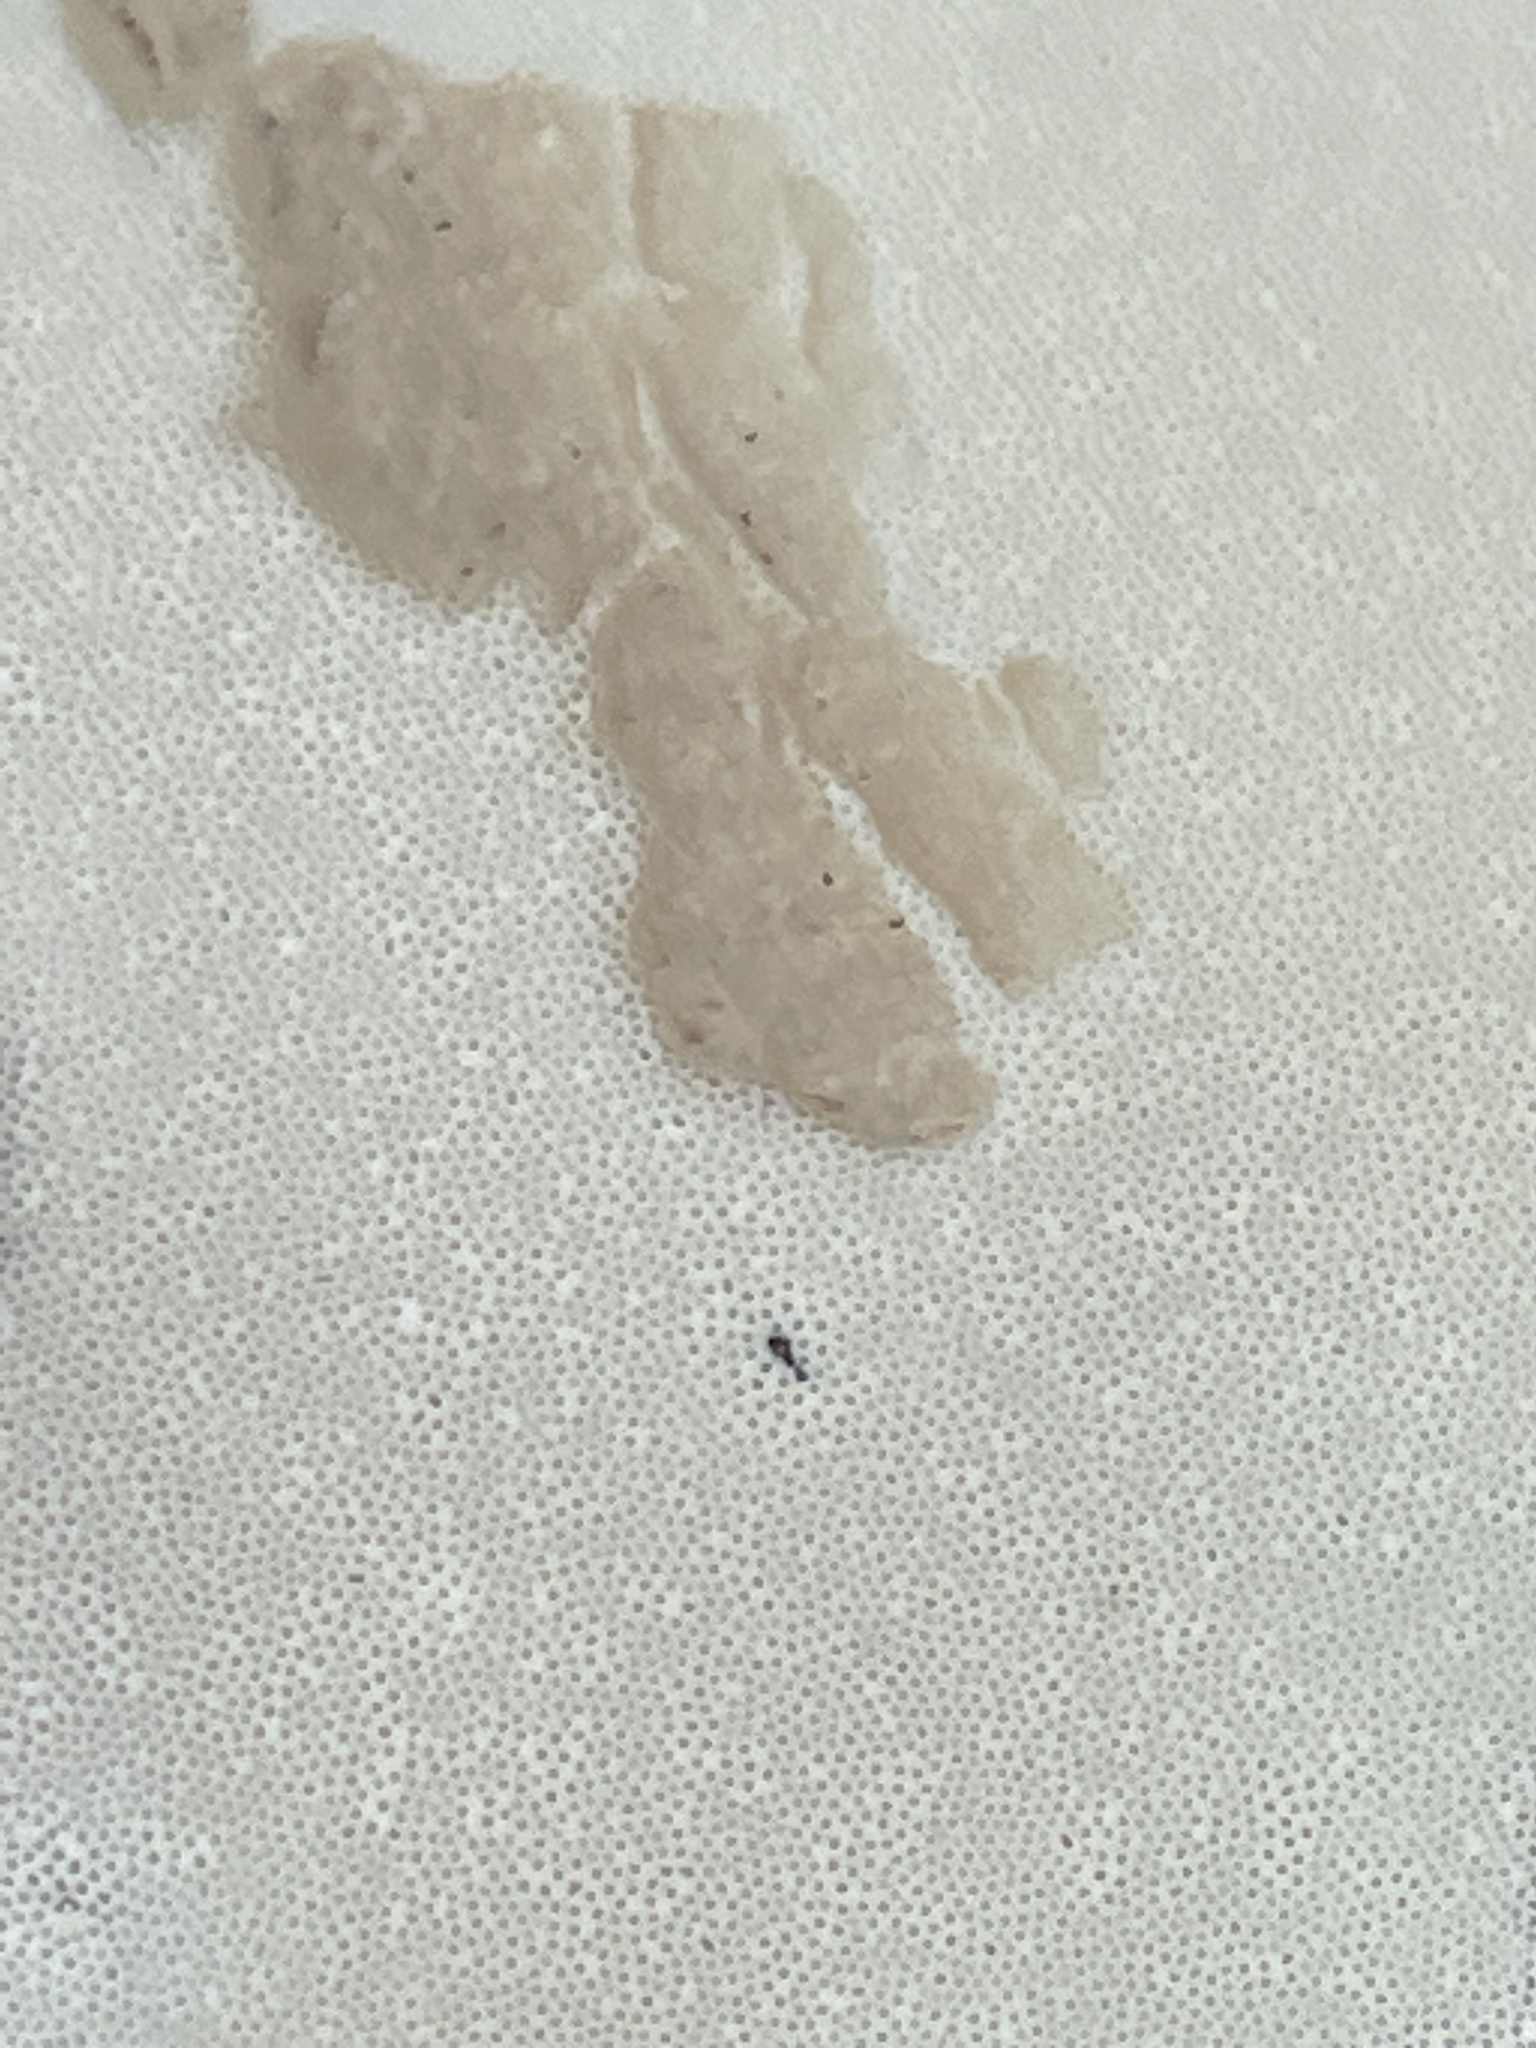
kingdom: Fungi
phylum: Basidiomycota
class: Agaricomycetes
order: Polyporales
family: Polyporaceae
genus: Ganoderma
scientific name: Ganoderma oregonense
